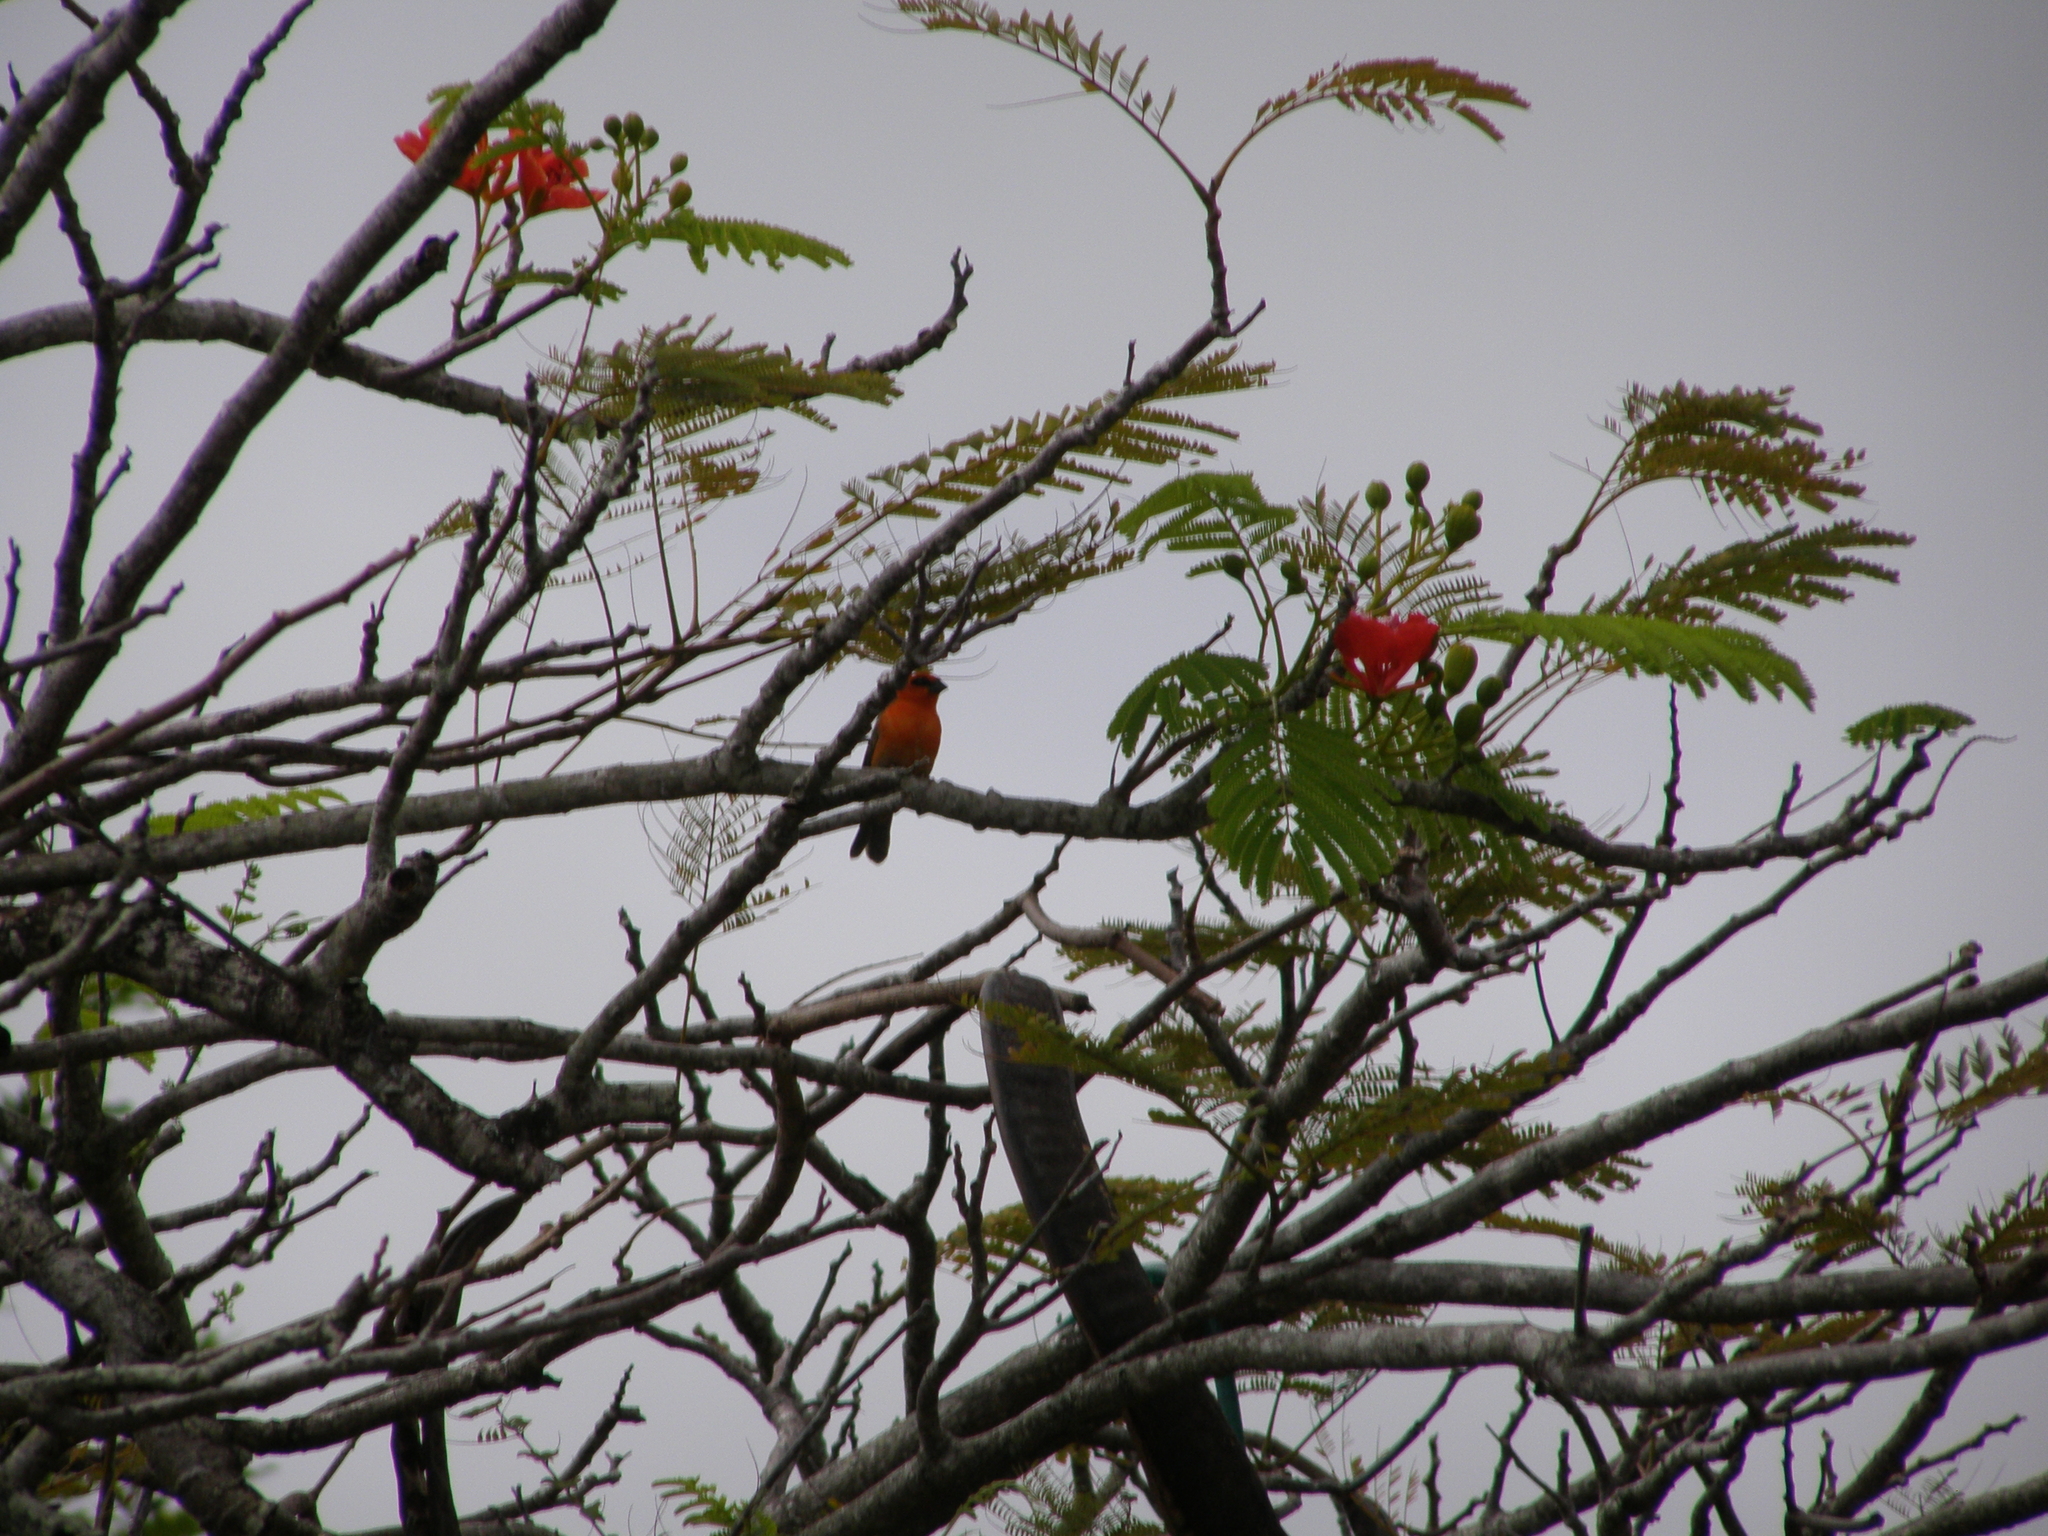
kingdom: Animalia
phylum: Chordata
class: Aves
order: Passeriformes
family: Ploceidae
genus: Foudia
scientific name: Foudia madagascariensis
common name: Red fody
